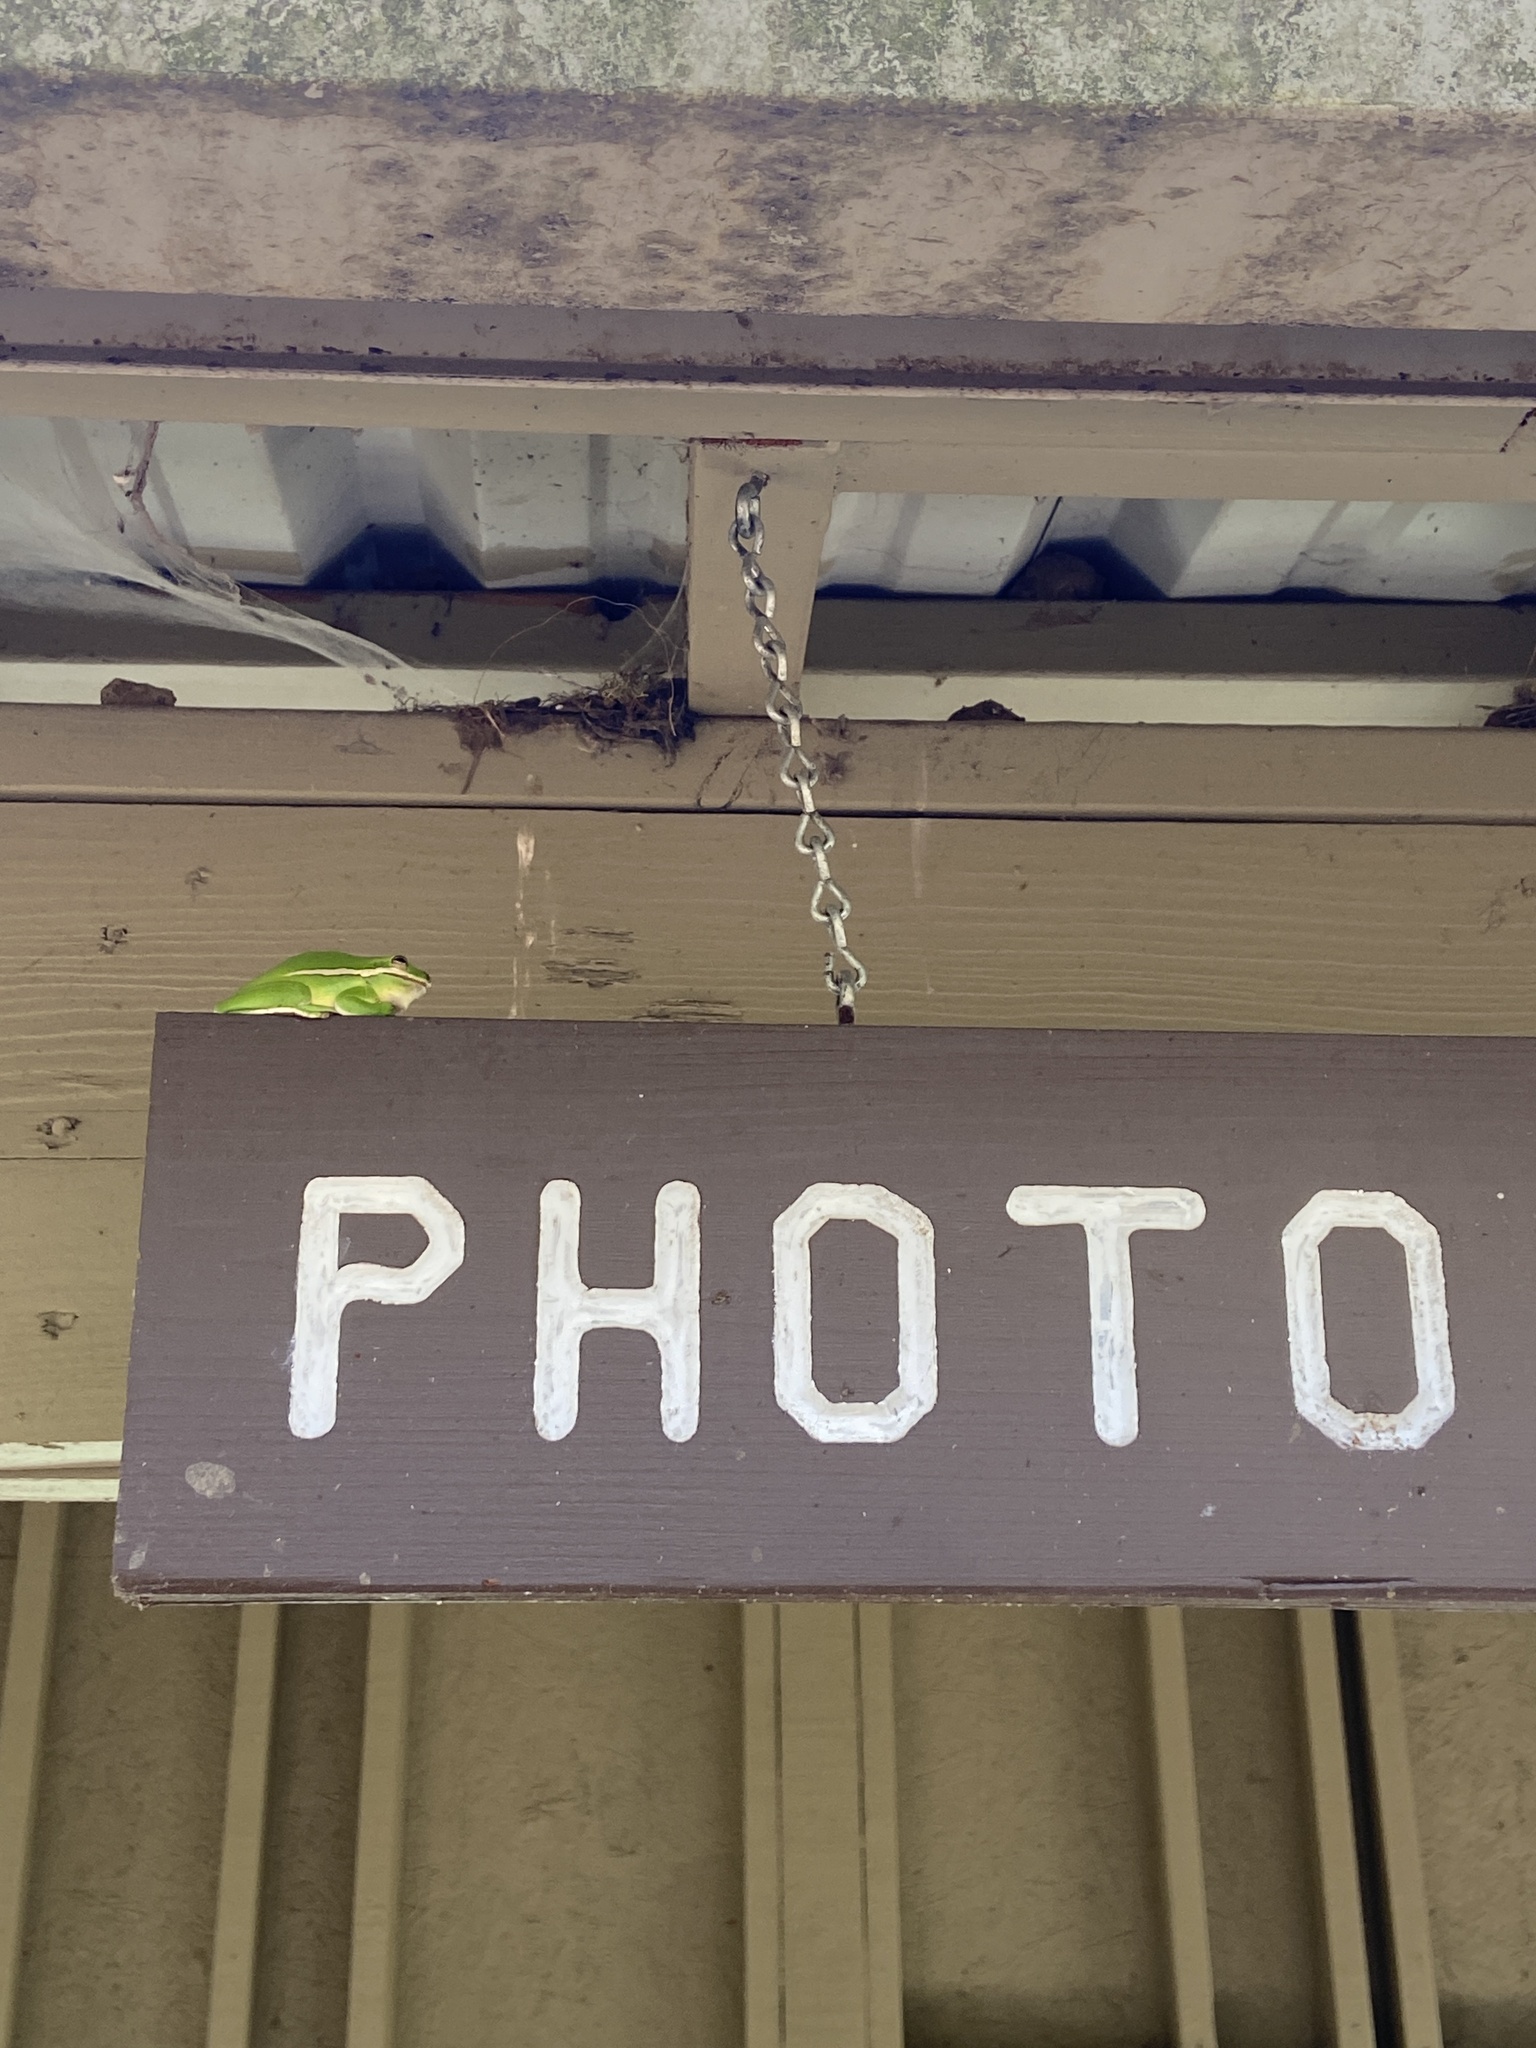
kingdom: Animalia
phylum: Chordata
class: Amphibia
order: Anura
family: Hylidae
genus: Dryophytes
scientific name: Dryophytes cinereus
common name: Green treefrog
